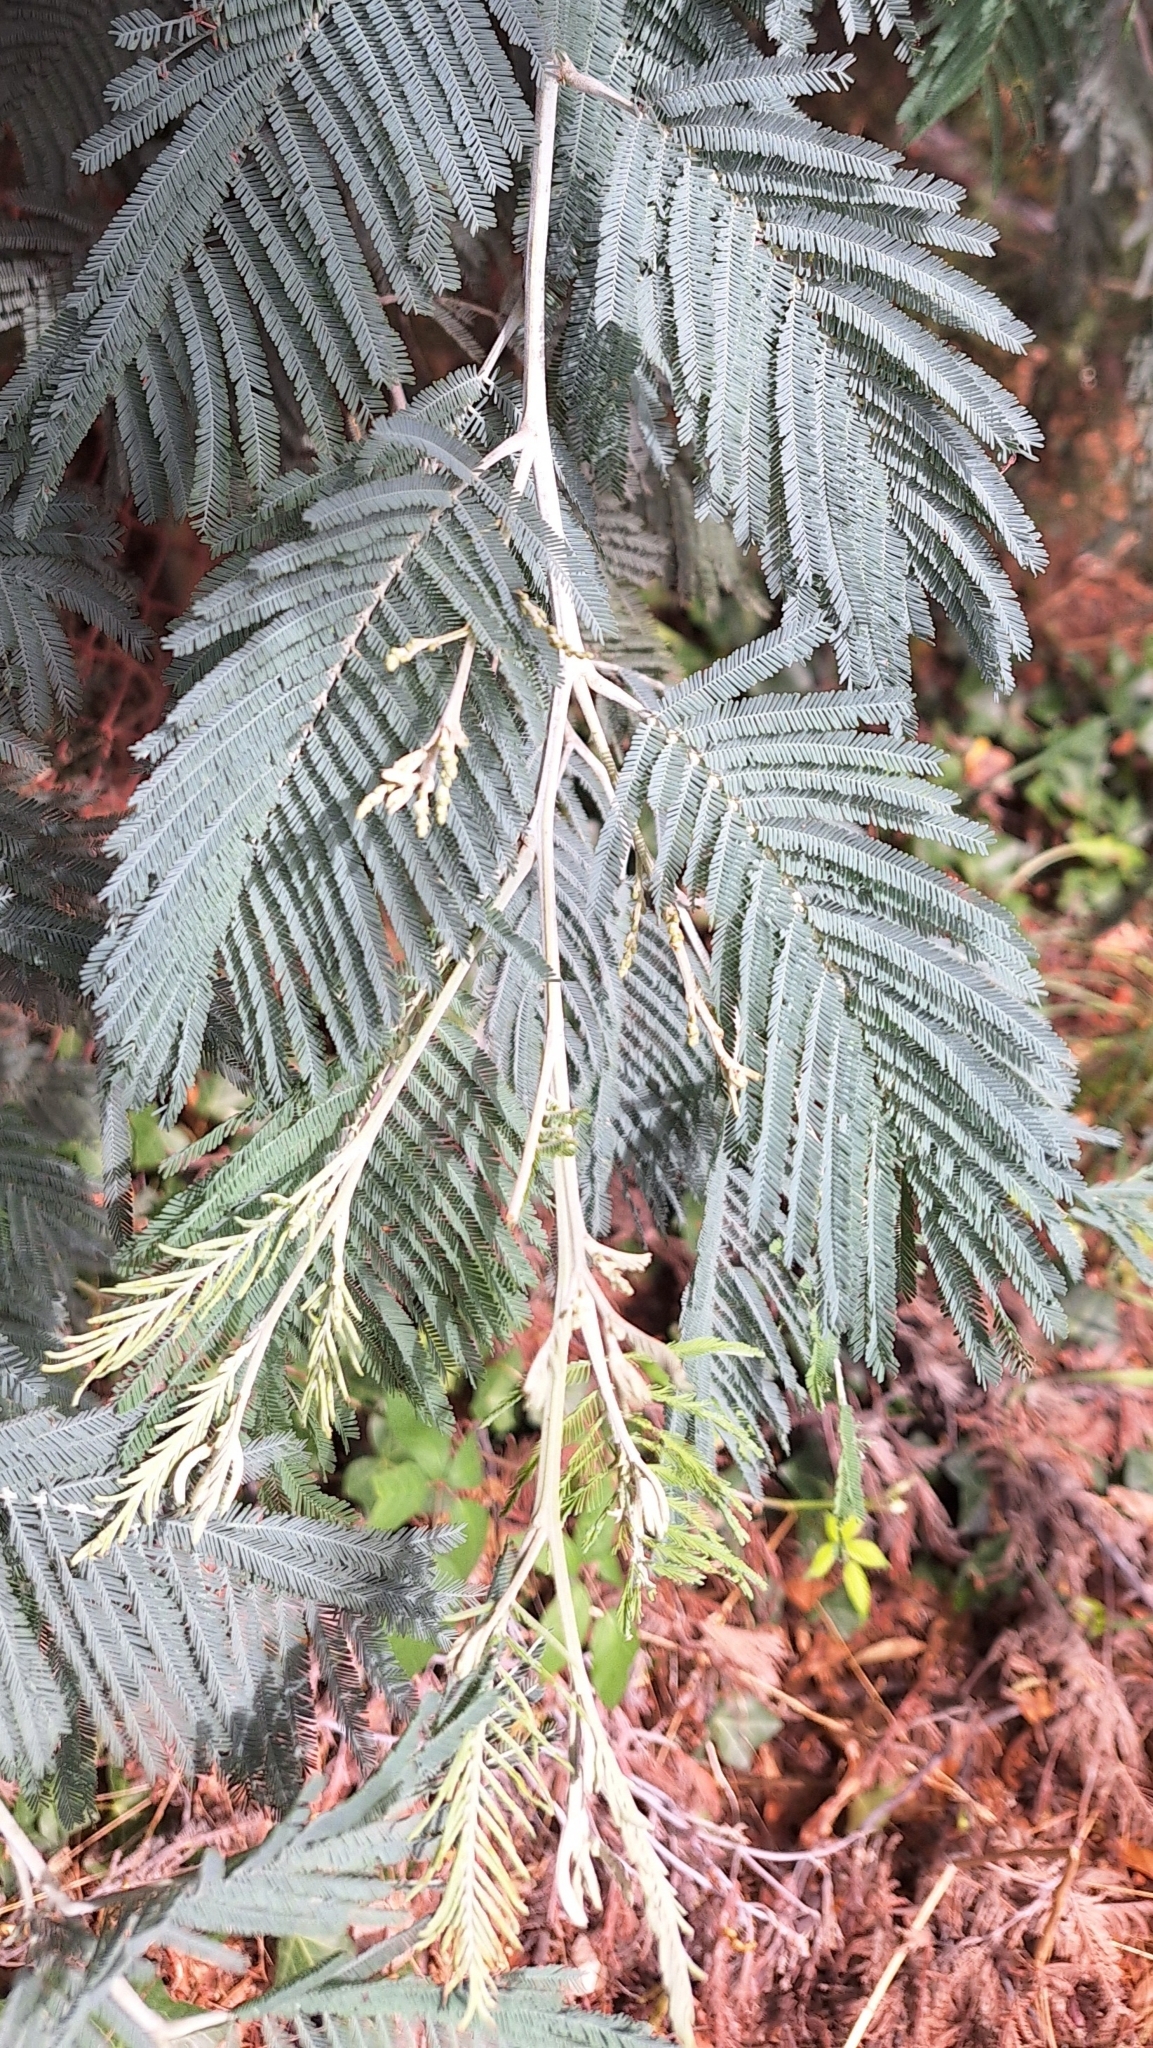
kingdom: Plantae
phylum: Tracheophyta
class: Magnoliopsida
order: Fabales
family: Fabaceae
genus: Acacia
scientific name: Acacia dealbata
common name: Silver wattle
